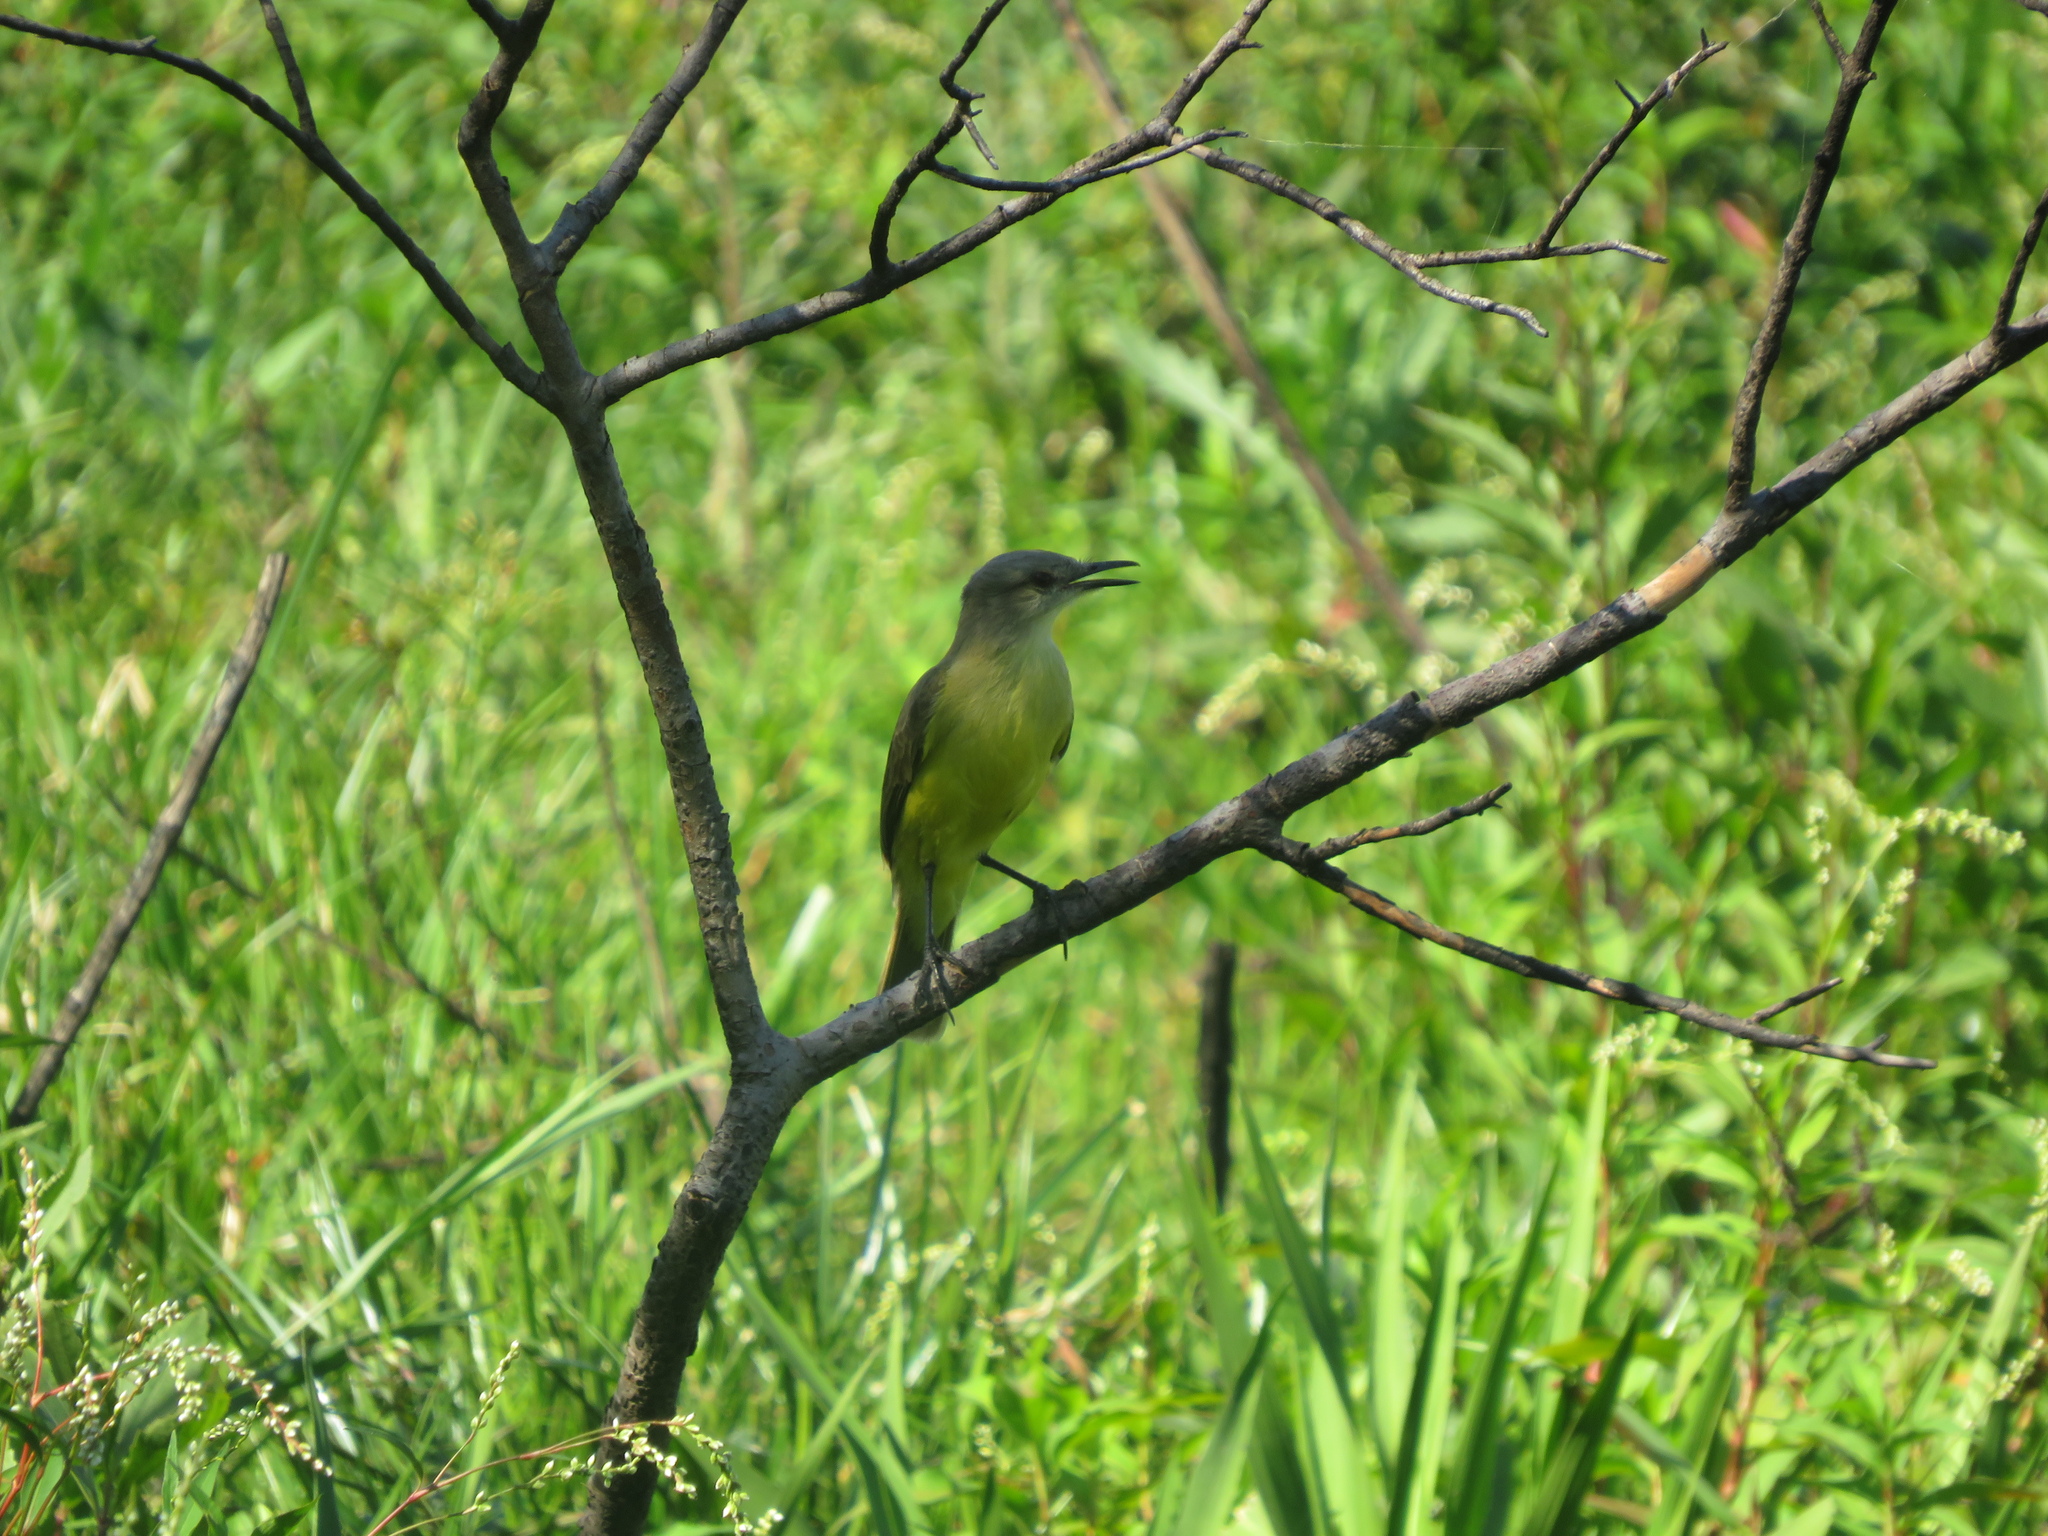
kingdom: Animalia
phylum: Chordata
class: Aves
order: Passeriformes
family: Tyrannidae
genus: Machetornis
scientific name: Machetornis rixosa
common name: Cattle tyrant
